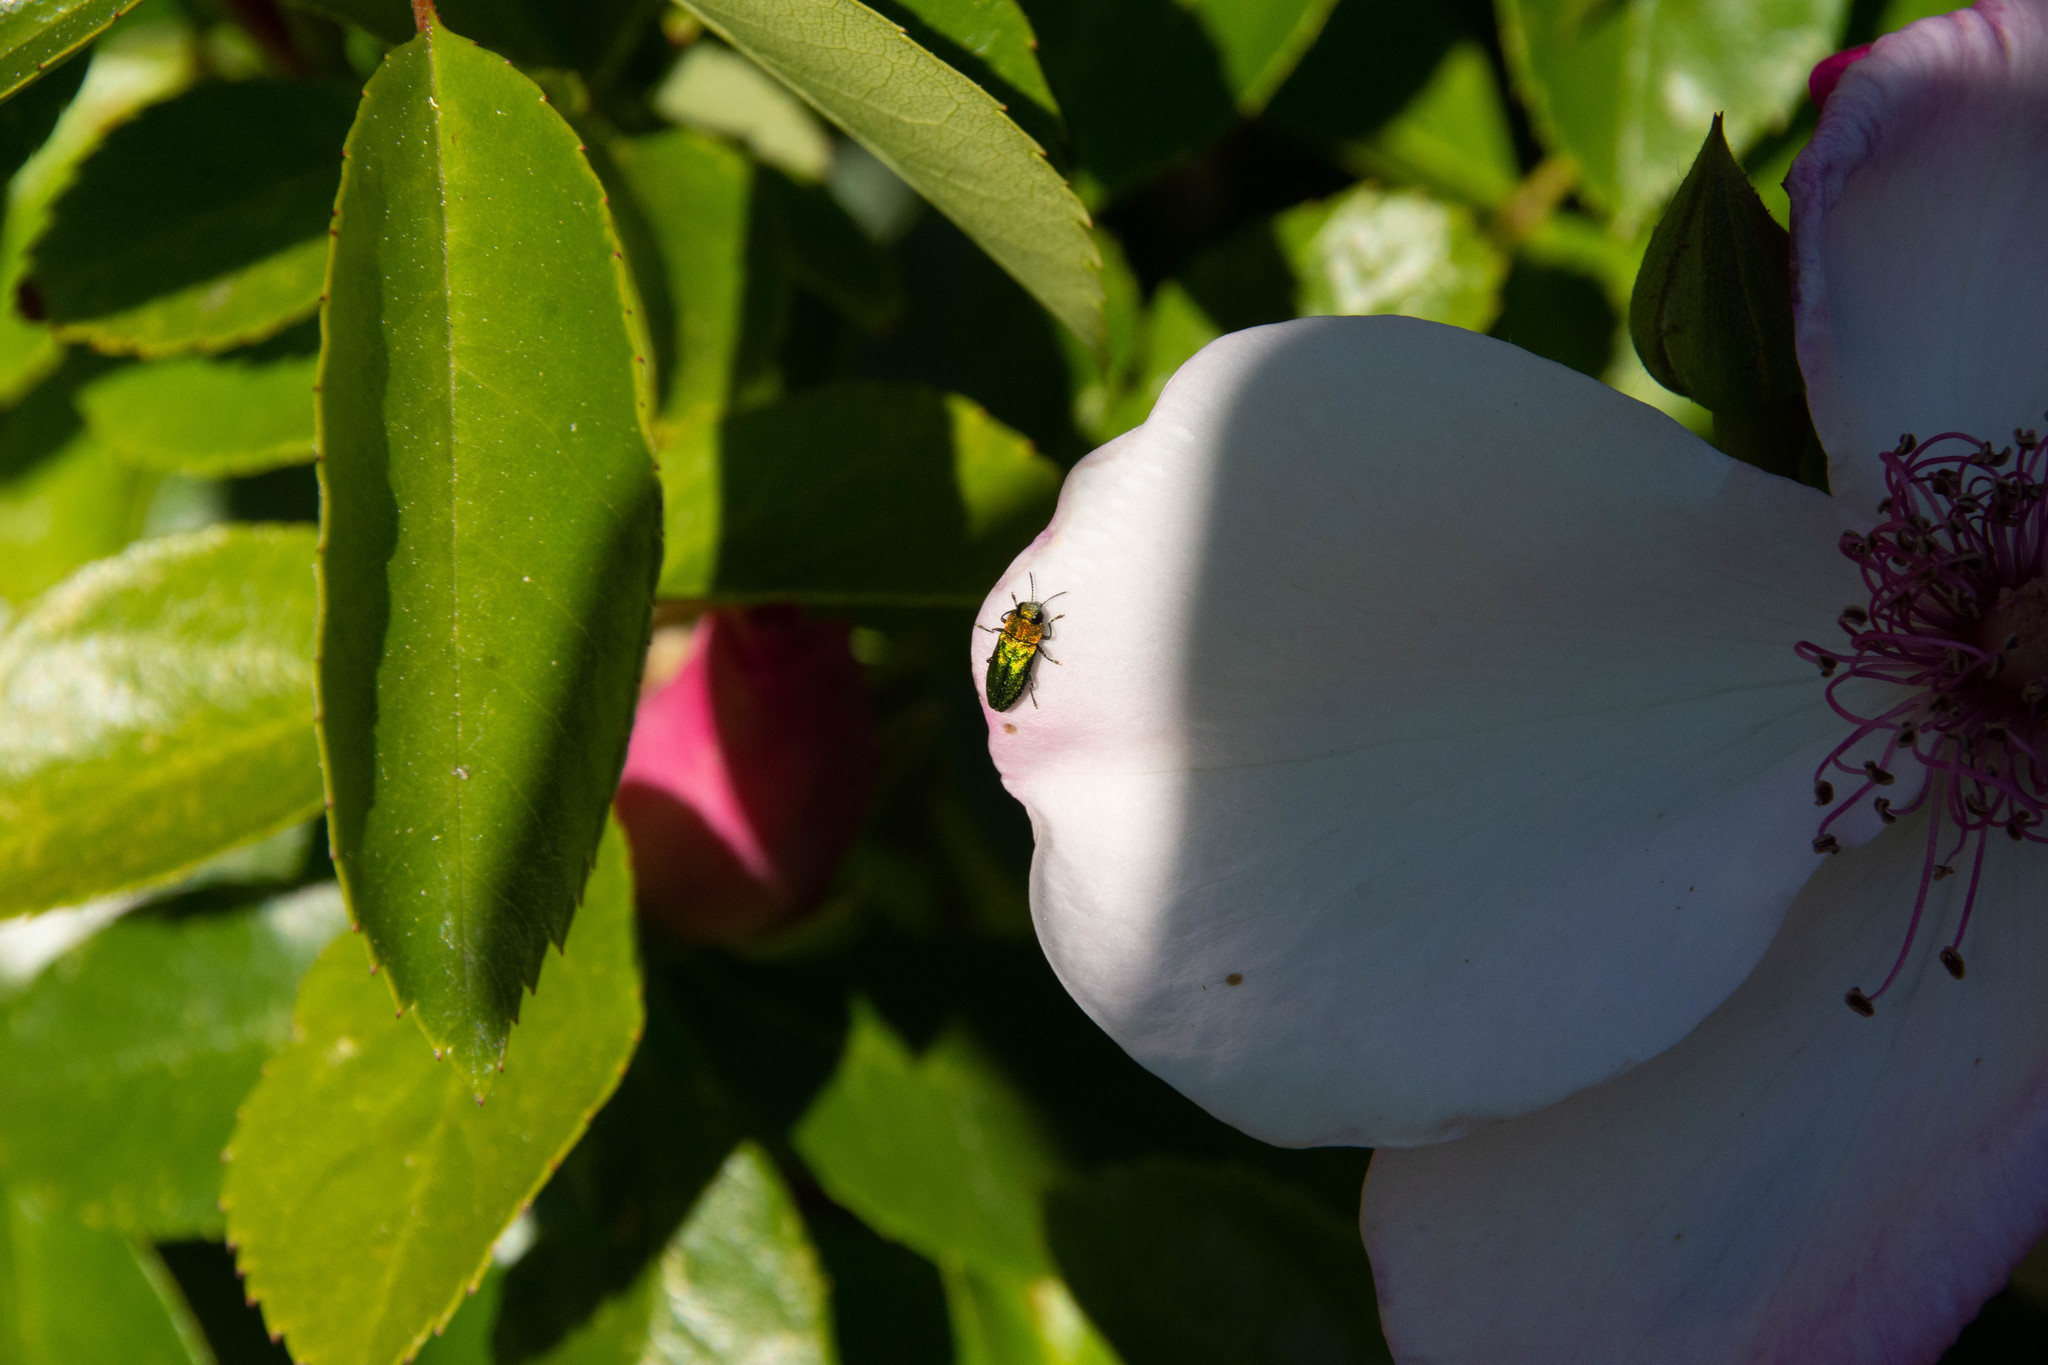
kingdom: Animalia
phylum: Arthropoda
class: Insecta
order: Coleoptera
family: Buprestidae
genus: Anthaxia
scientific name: Anthaxia nitidula
